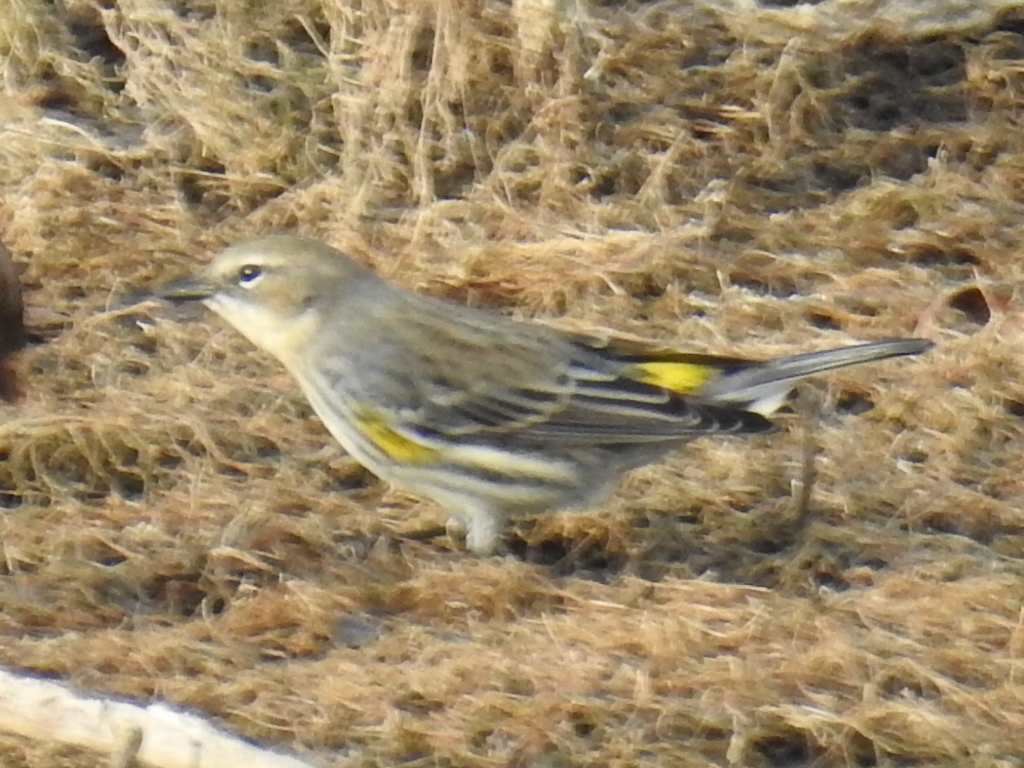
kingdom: Animalia
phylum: Chordata
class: Aves
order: Passeriformes
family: Parulidae
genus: Setophaga
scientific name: Setophaga coronata
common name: Myrtle warbler
